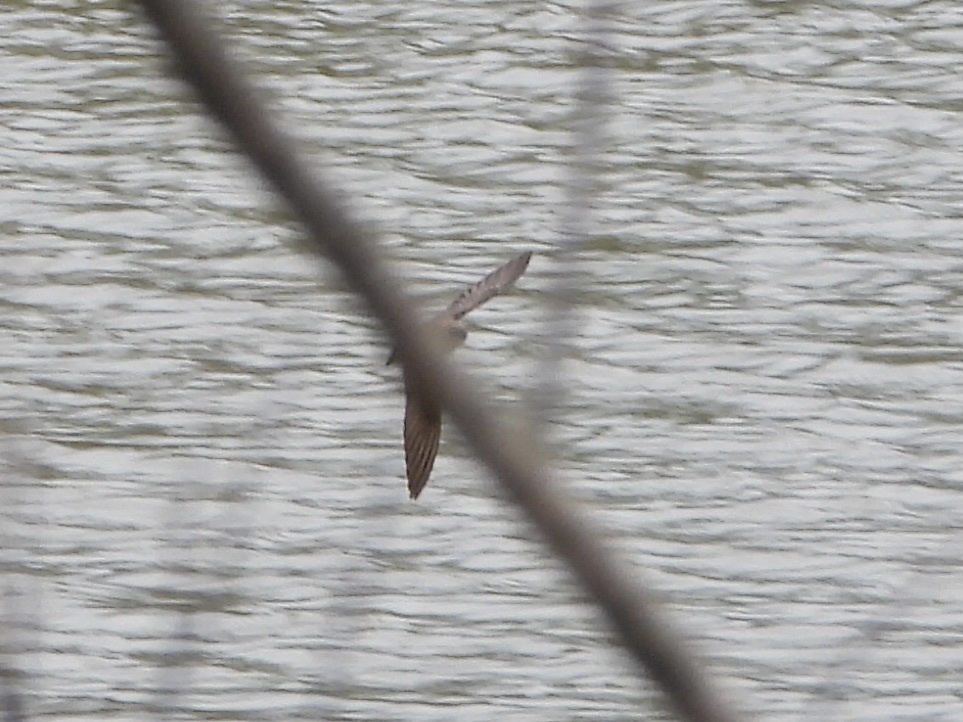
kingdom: Animalia
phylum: Chordata
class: Aves
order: Passeriformes
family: Hirundinidae
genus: Stelgidopteryx
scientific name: Stelgidopteryx serripennis
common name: Northern rough-winged swallow
